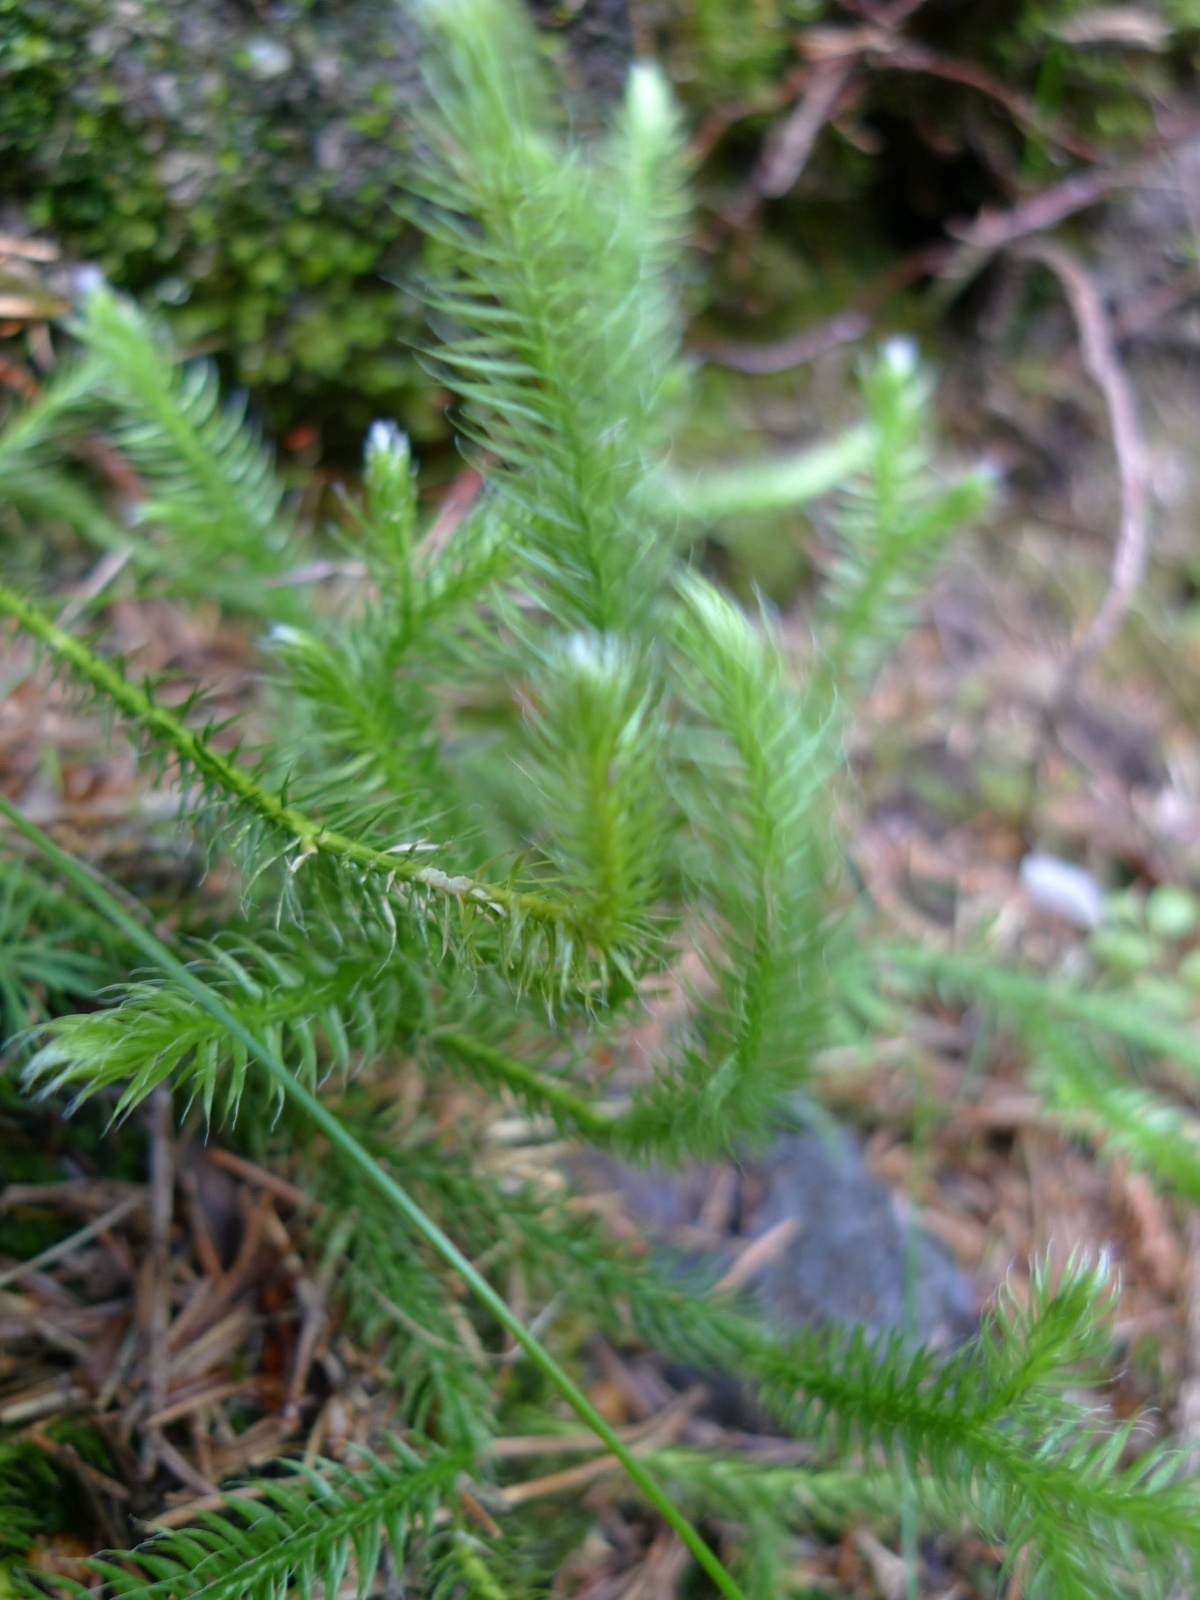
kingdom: Plantae
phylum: Tracheophyta
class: Lycopodiopsida
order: Lycopodiales
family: Lycopodiaceae
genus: Lycopodium
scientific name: Lycopodium clavatum
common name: Stag's-horn clubmoss
